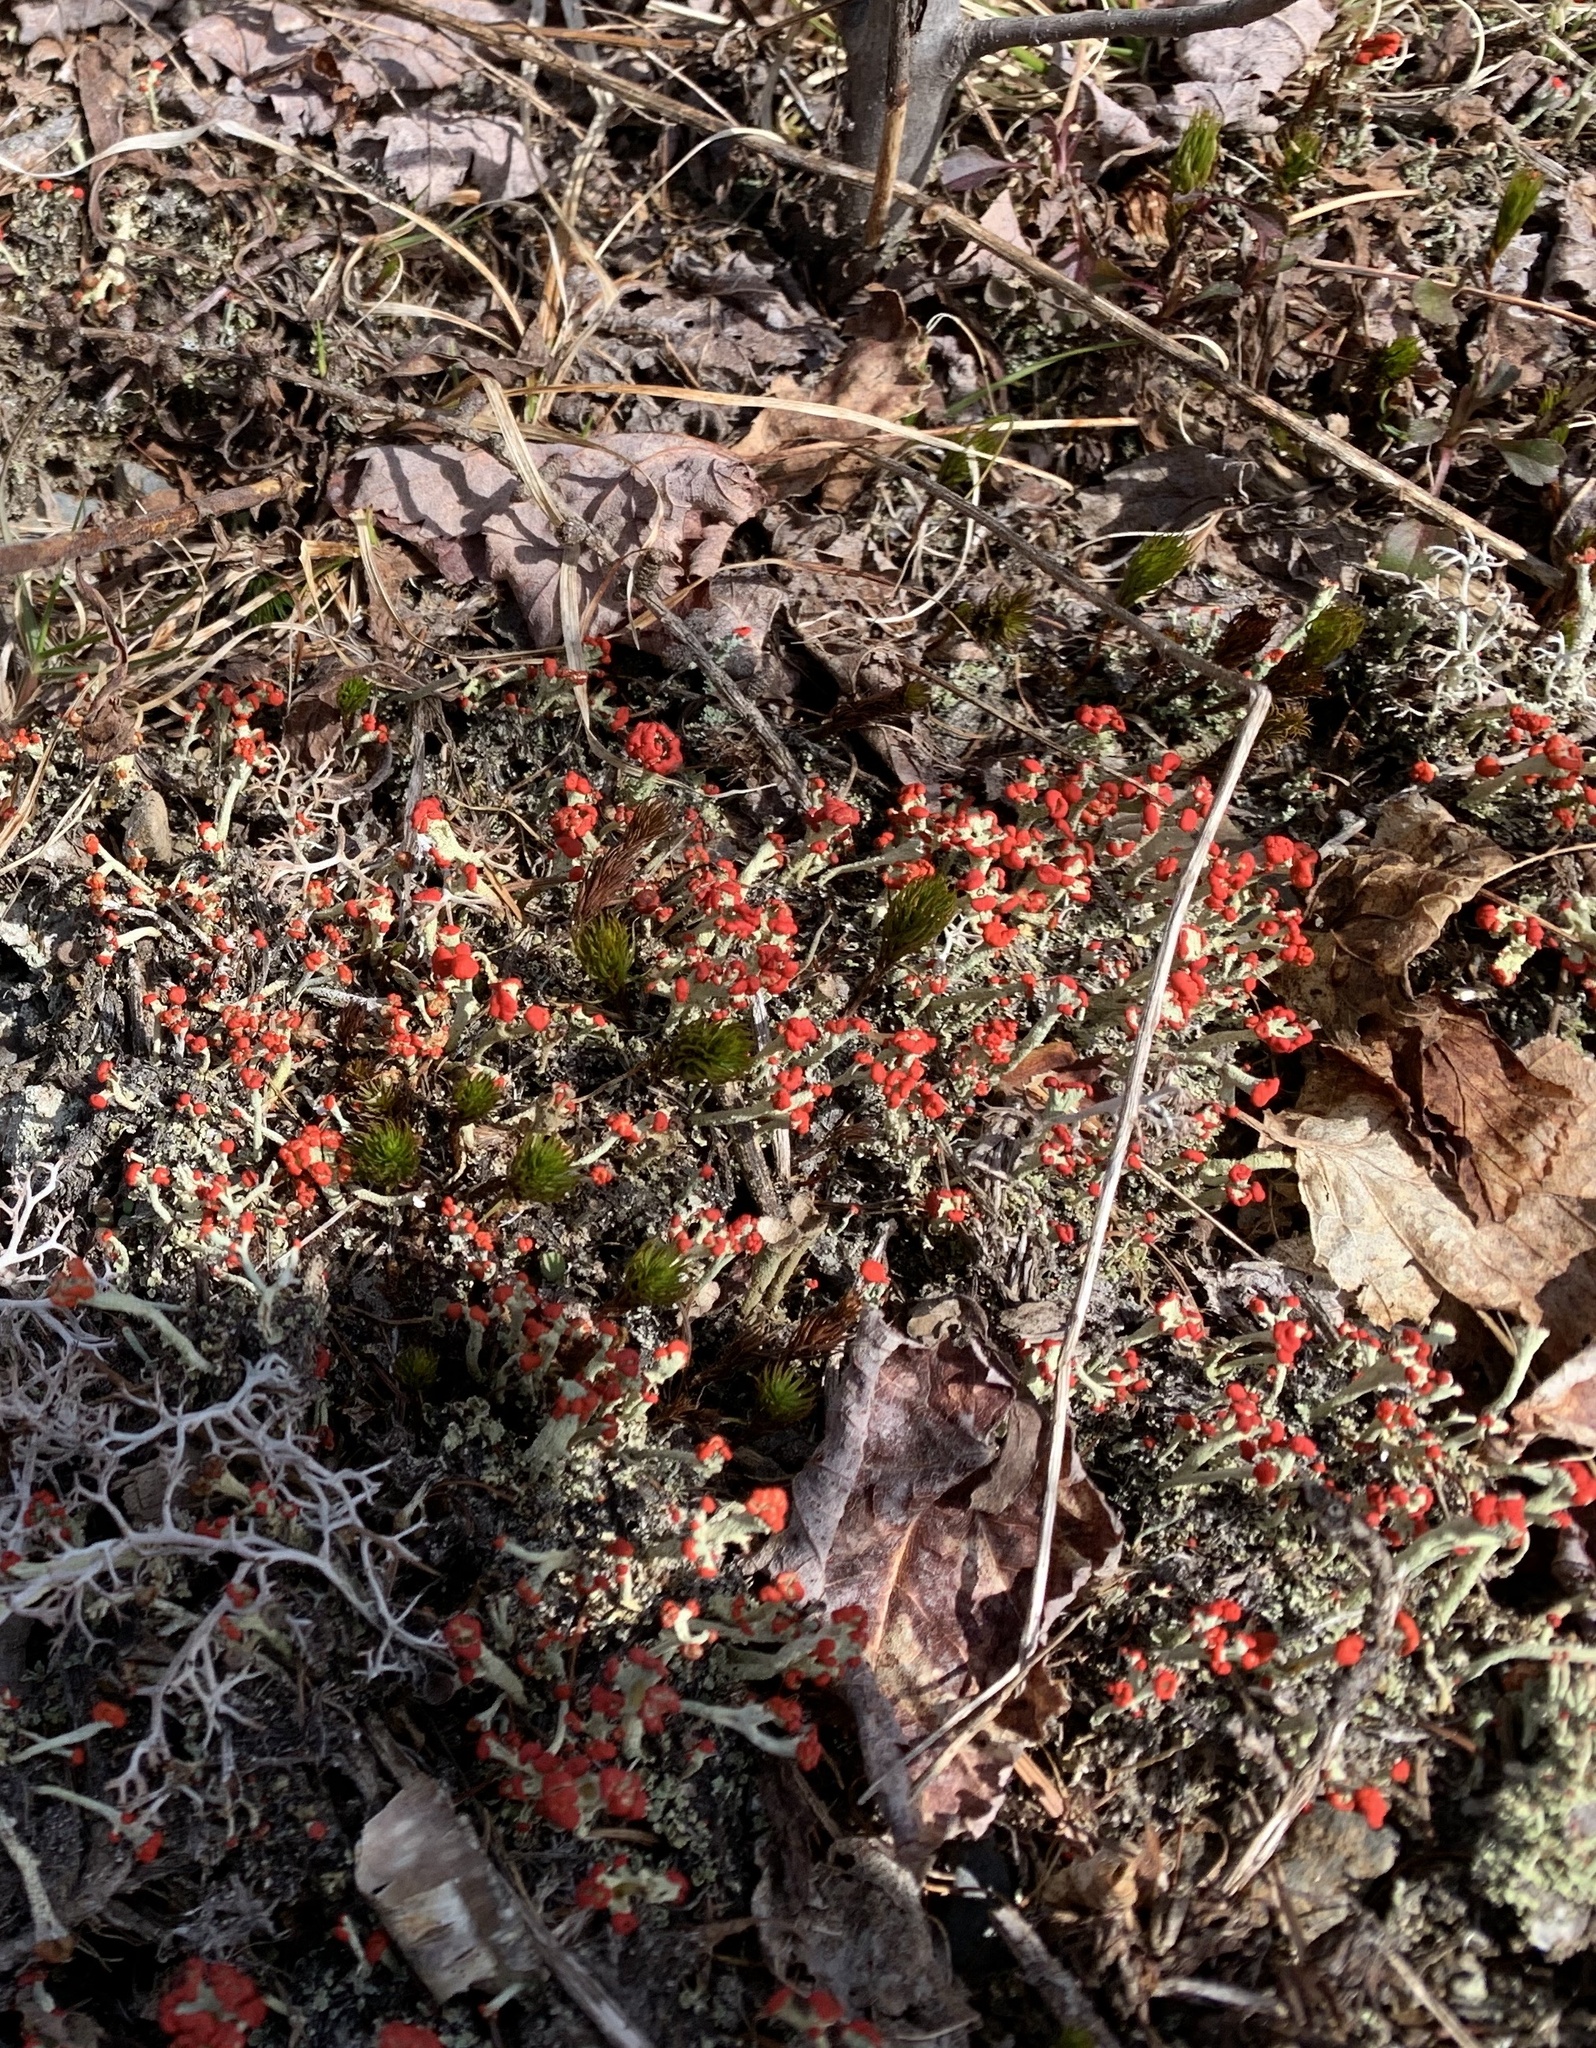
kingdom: Fungi
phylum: Ascomycota
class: Lecanoromycetes
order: Lecanorales
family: Cladoniaceae
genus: Cladonia
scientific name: Cladonia cristatella
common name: British soldier lichen
